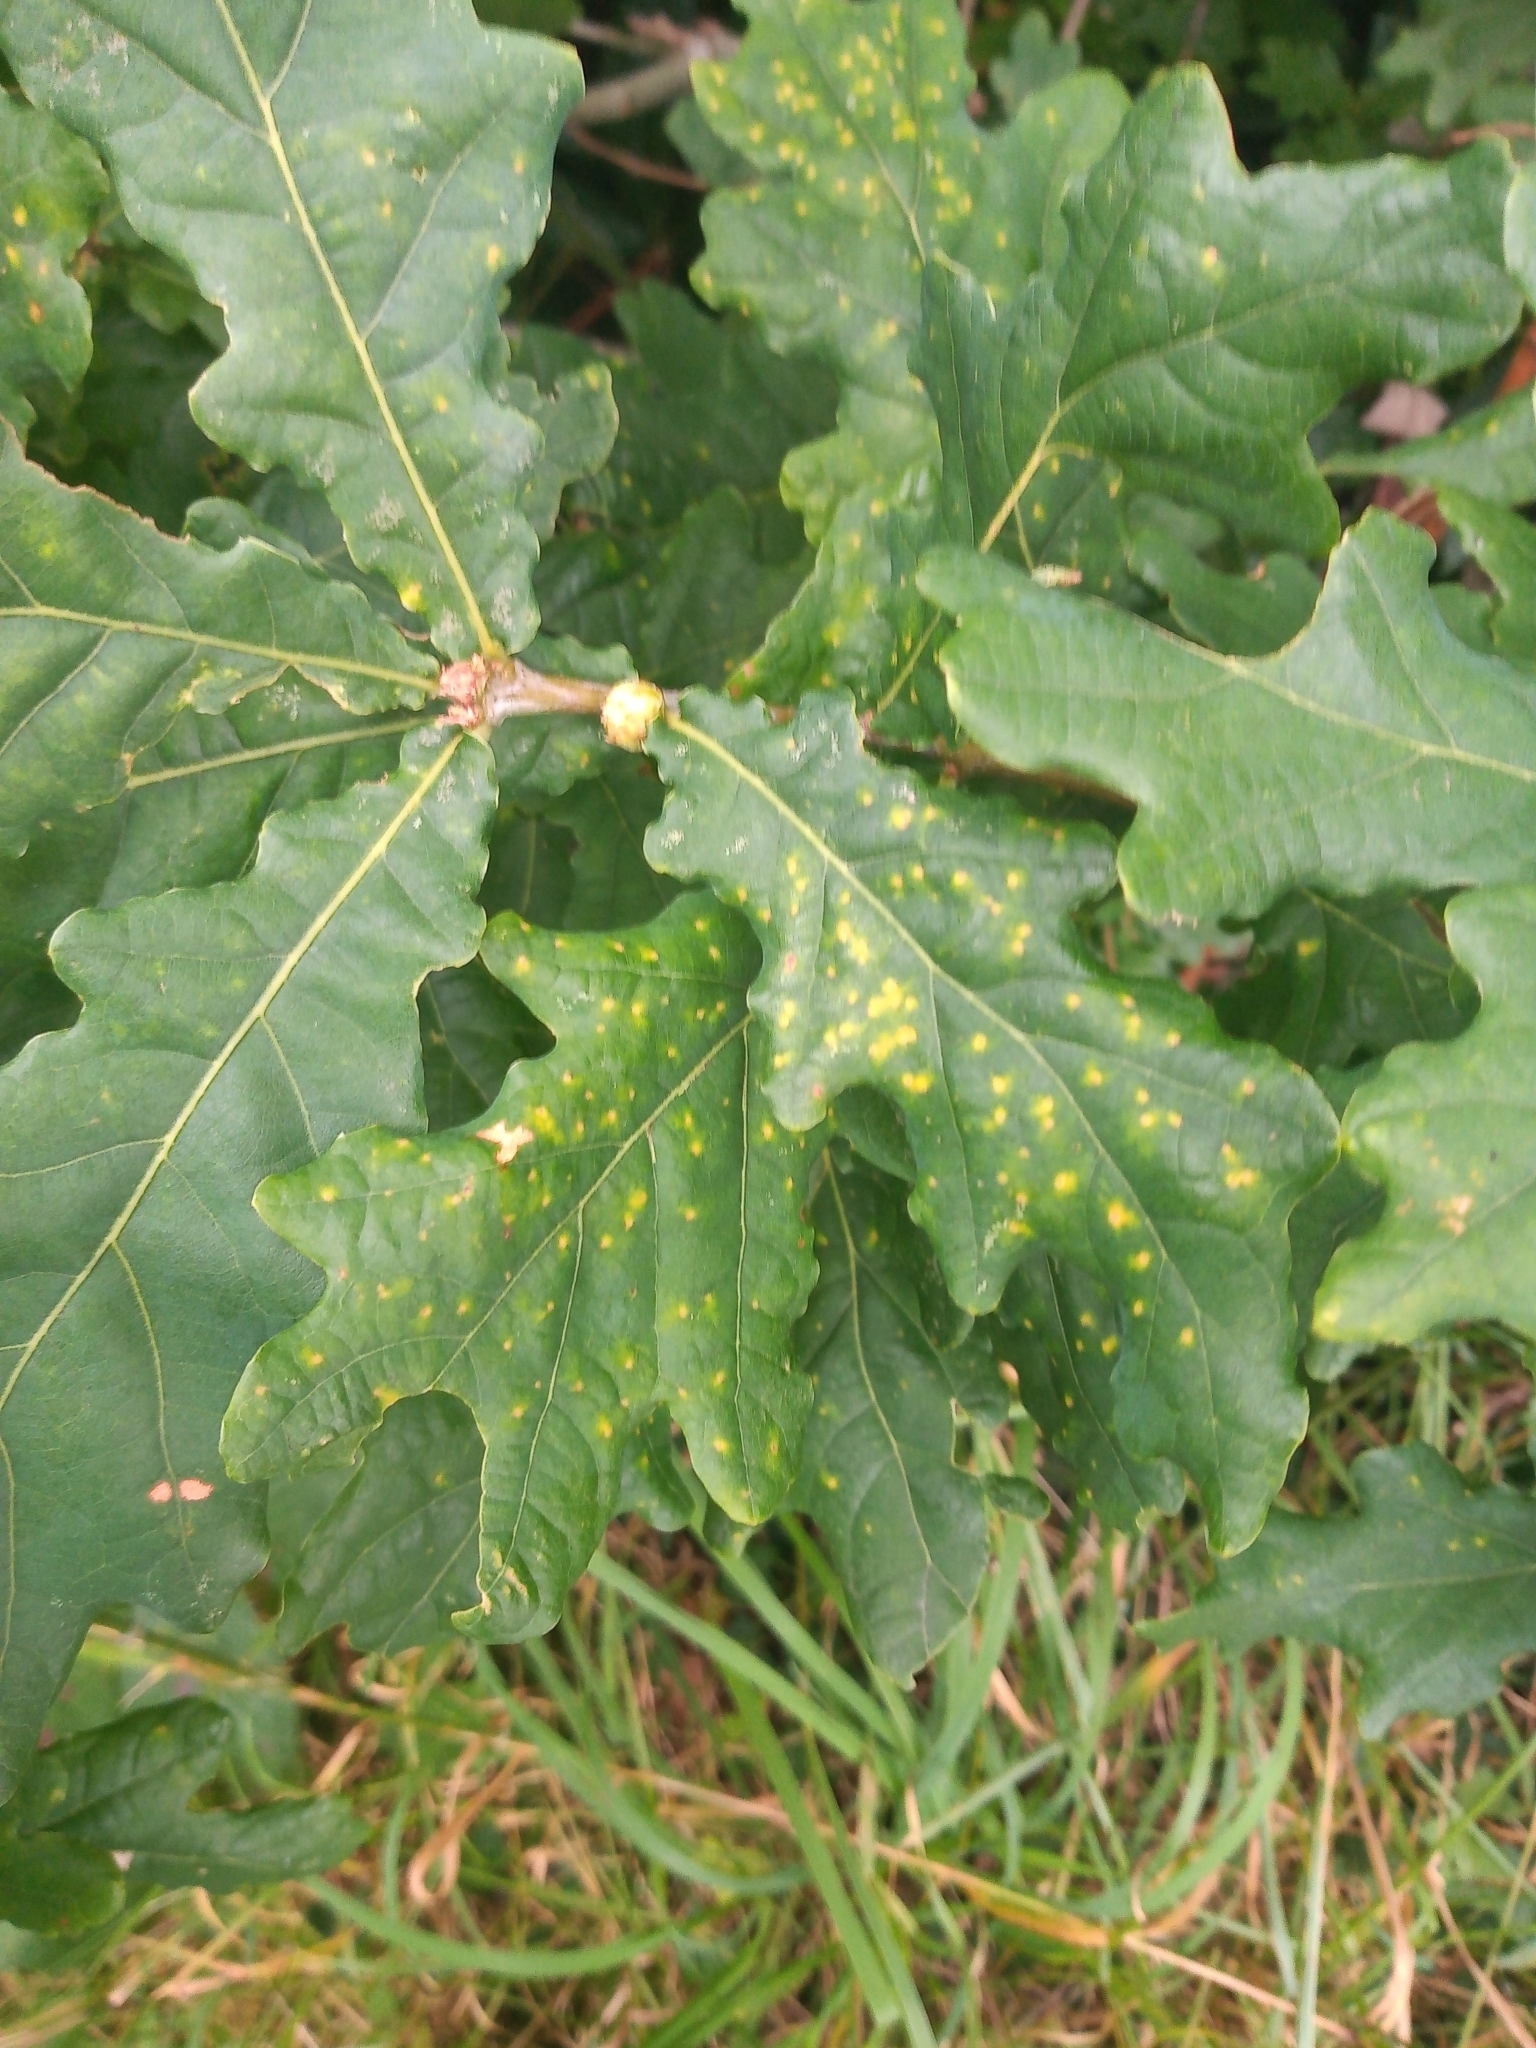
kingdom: Animalia
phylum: Arthropoda
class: Insecta
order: Hymenoptera
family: Cynipidae
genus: Neuroterus
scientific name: Neuroterus quercusbaccarum
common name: Common spangle gall
